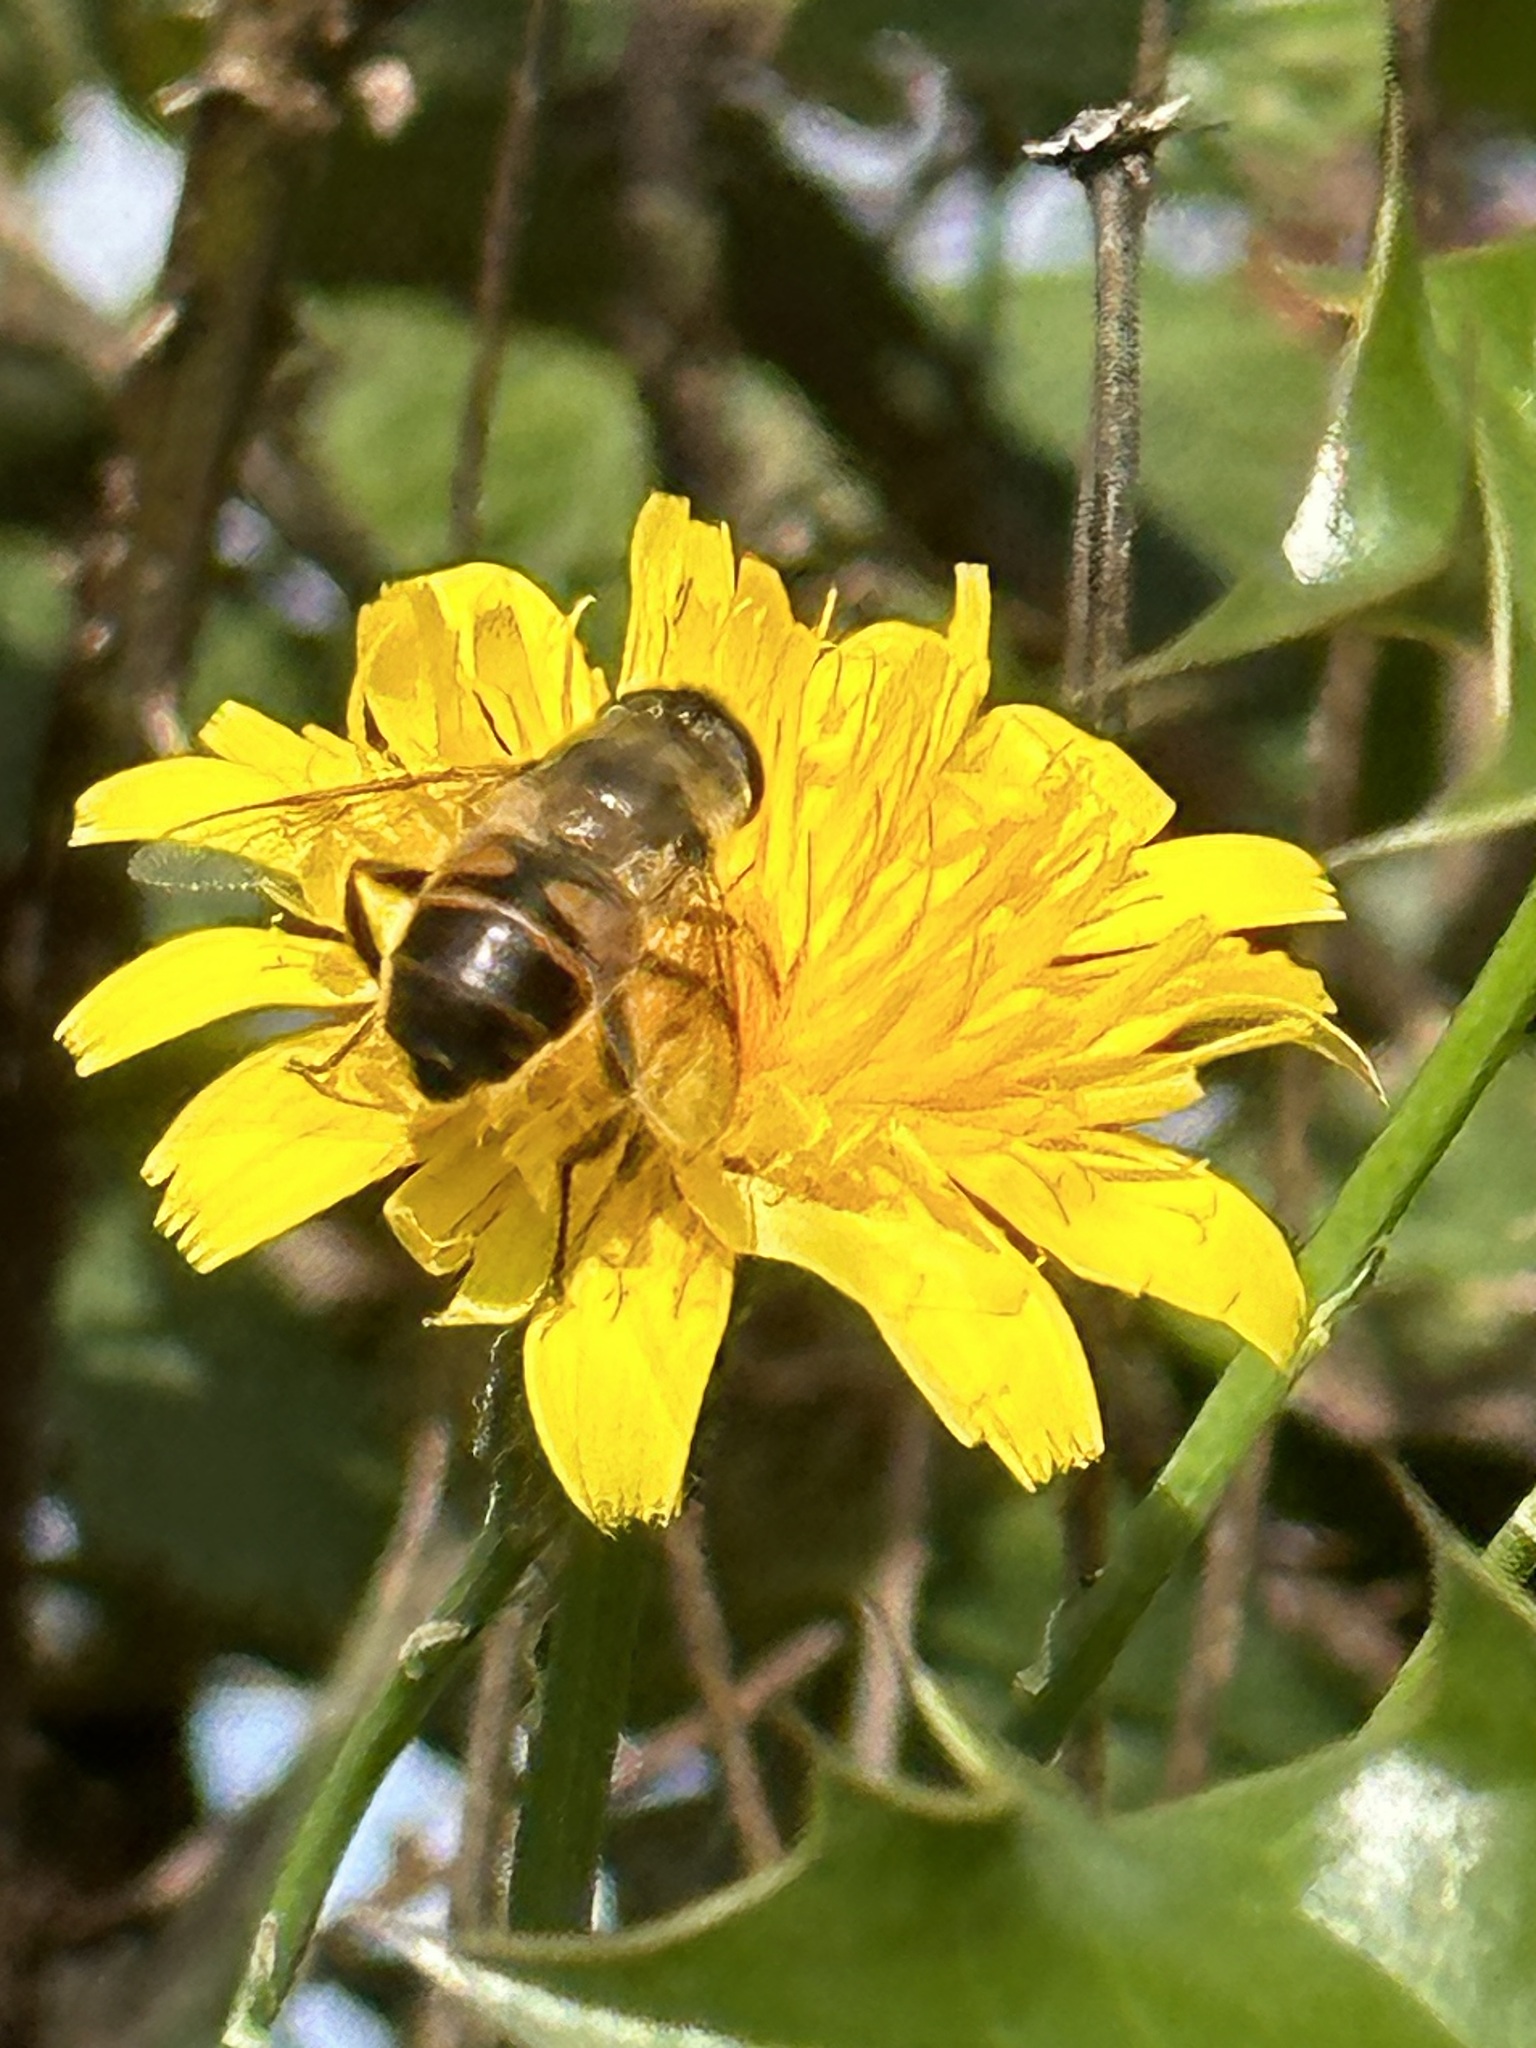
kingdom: Animalia
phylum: Arthropoda
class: Insecta
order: Diptera
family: Syrphidae
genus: Eristalis
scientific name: Eristalis tenax
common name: Drone fly
